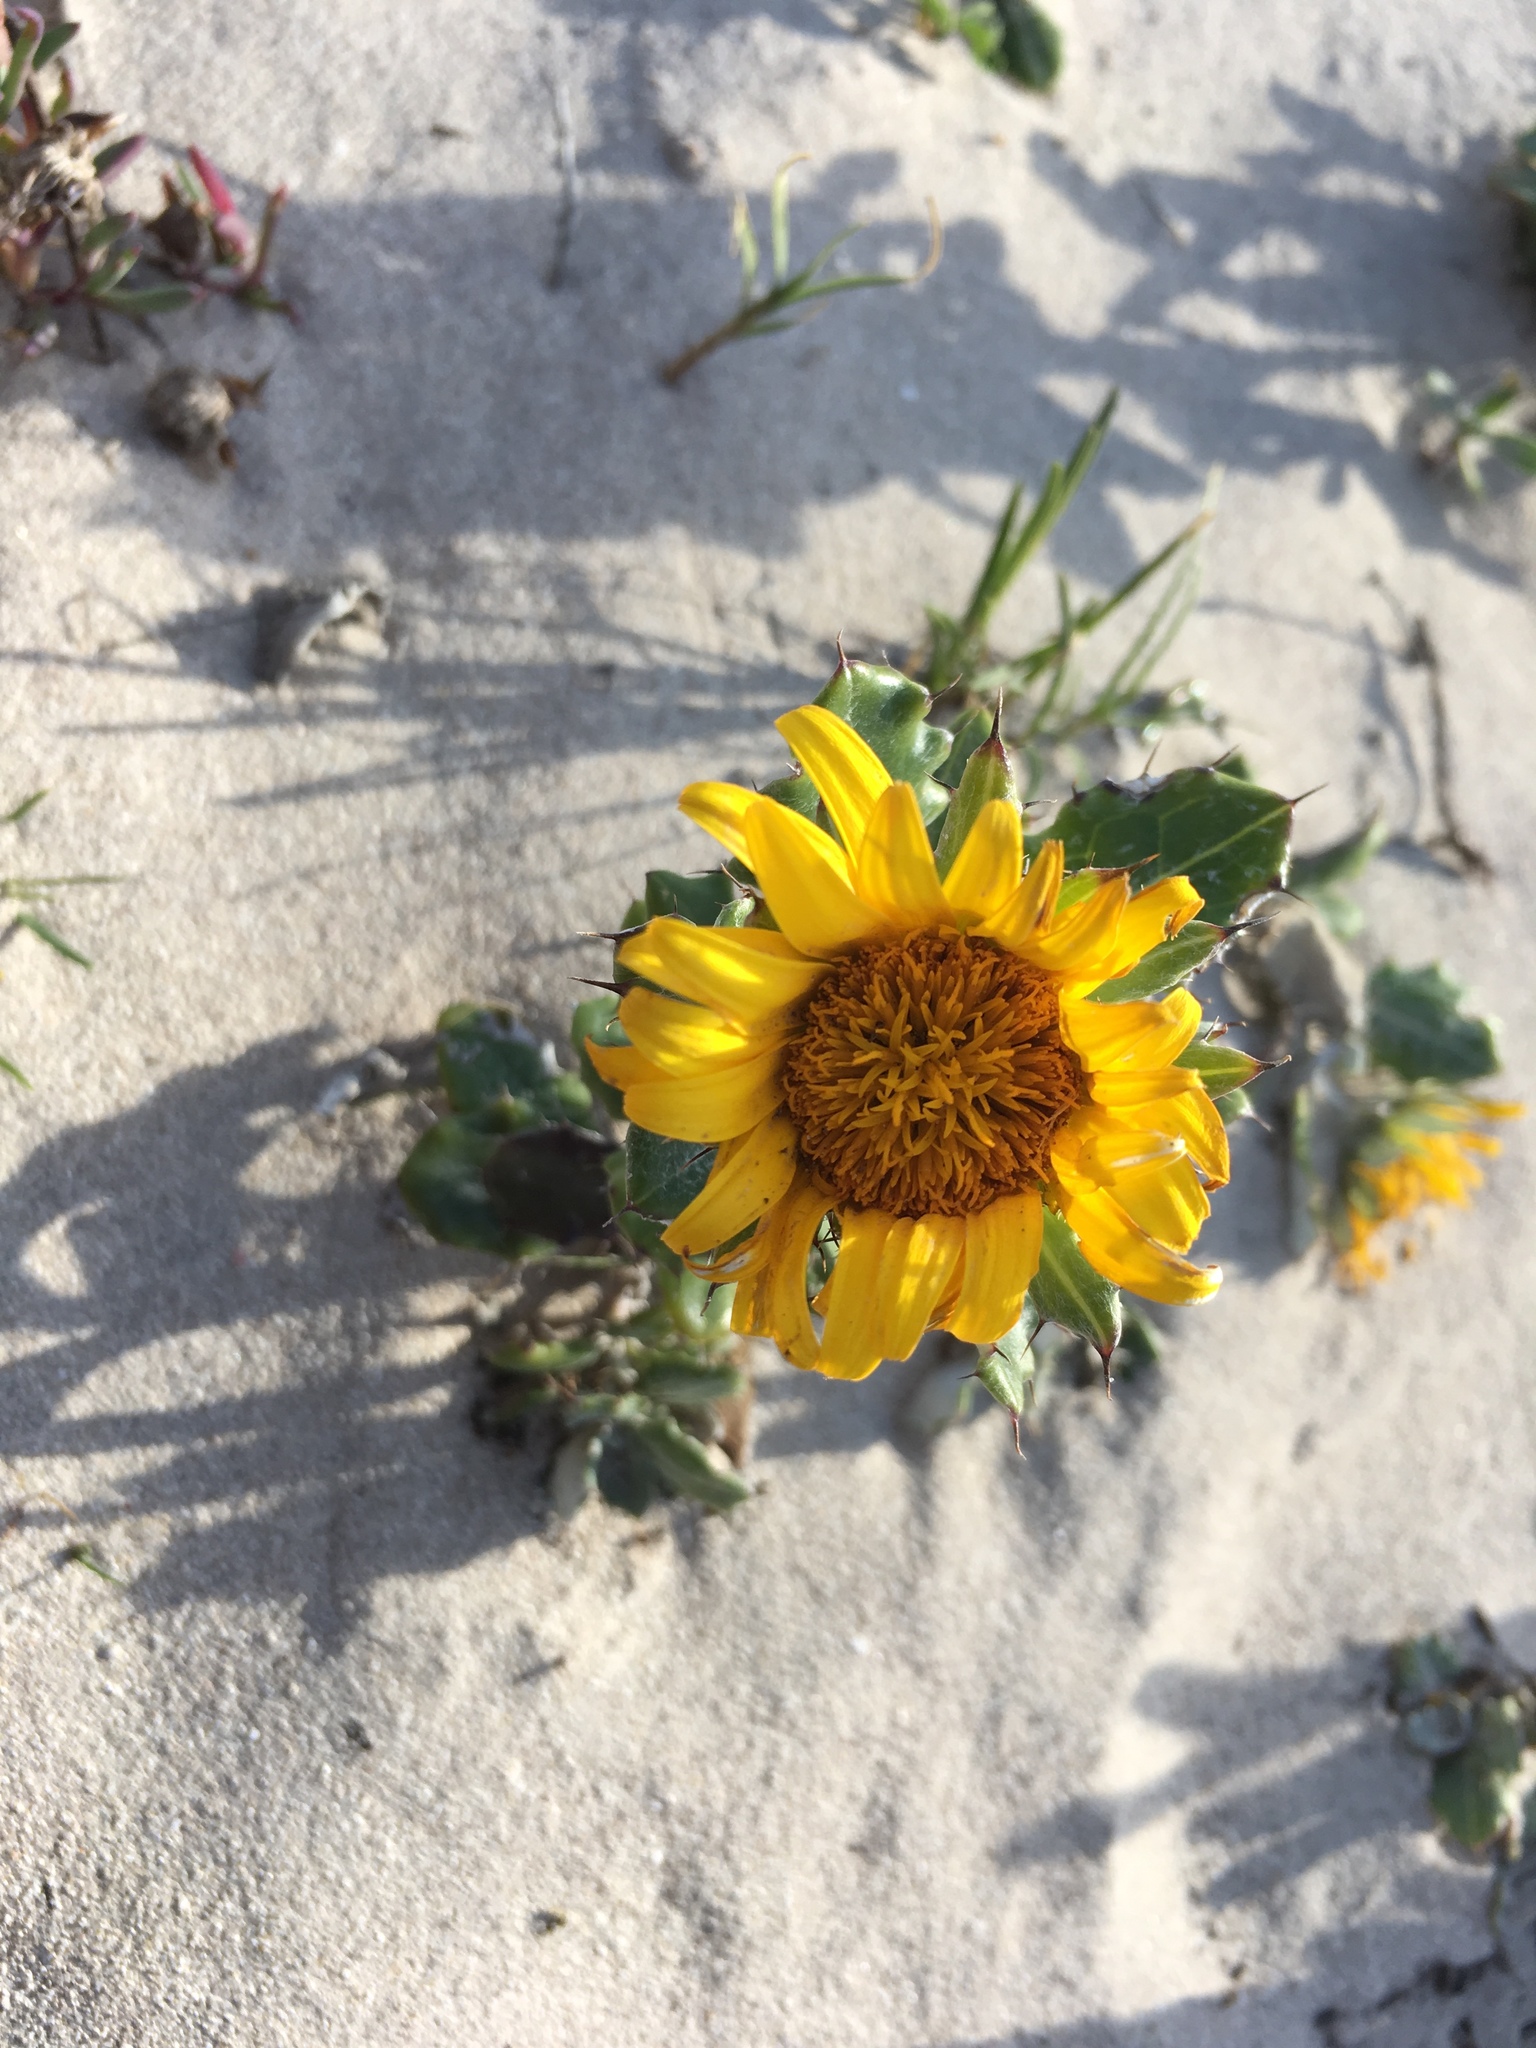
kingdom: Plantae
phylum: Tracheophyta
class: Magnoliopsida
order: Asterales
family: Asteraceae
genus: Berkheya
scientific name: Berkheya coriacea
